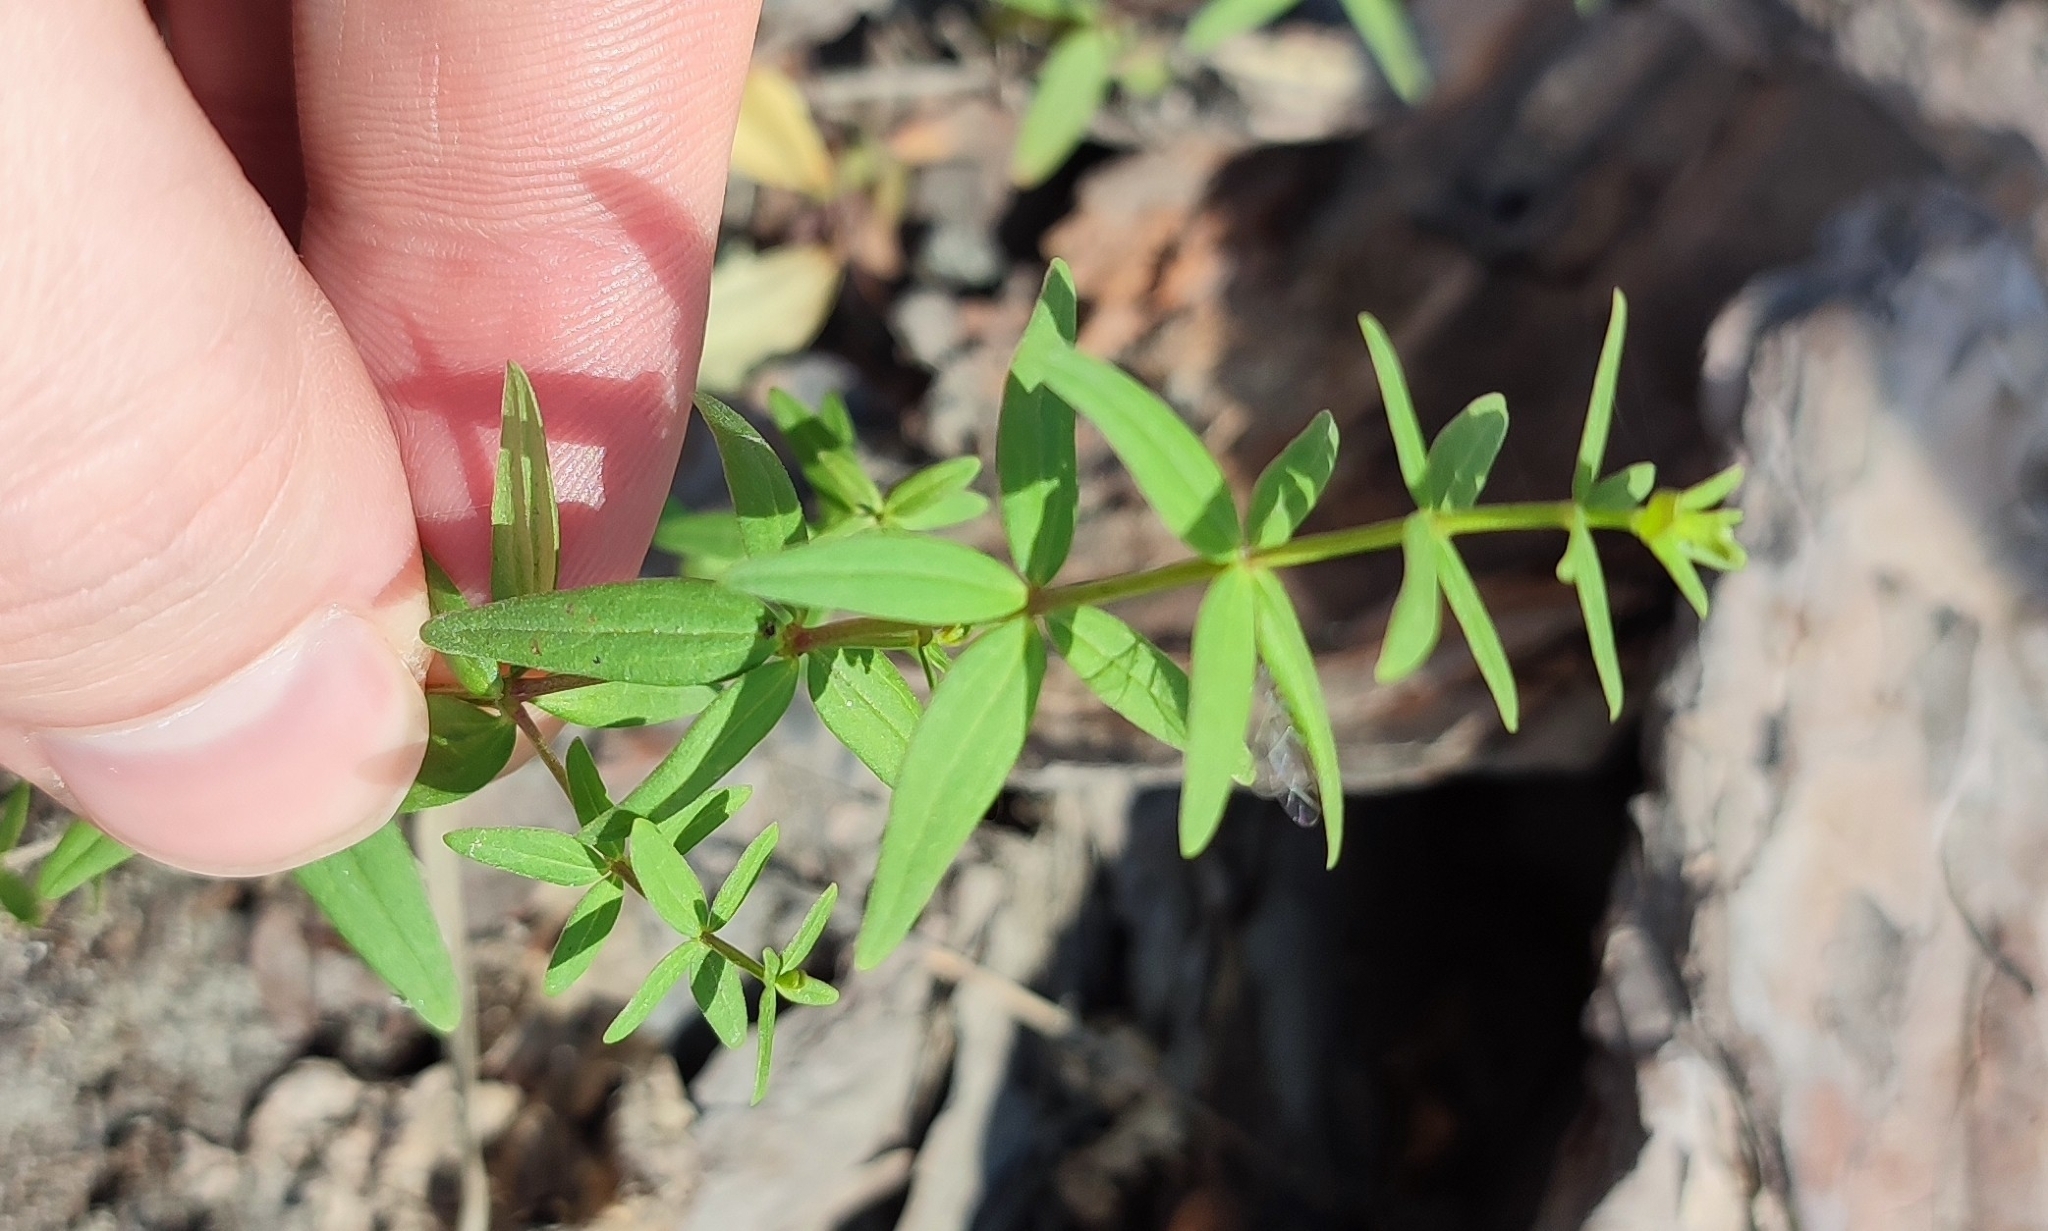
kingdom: Plantae
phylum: Tracheophyta
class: Magnoliopsida
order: Gentianales
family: Rubiaceae
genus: Galium
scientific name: Galium boreale
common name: Northern bedstraw
